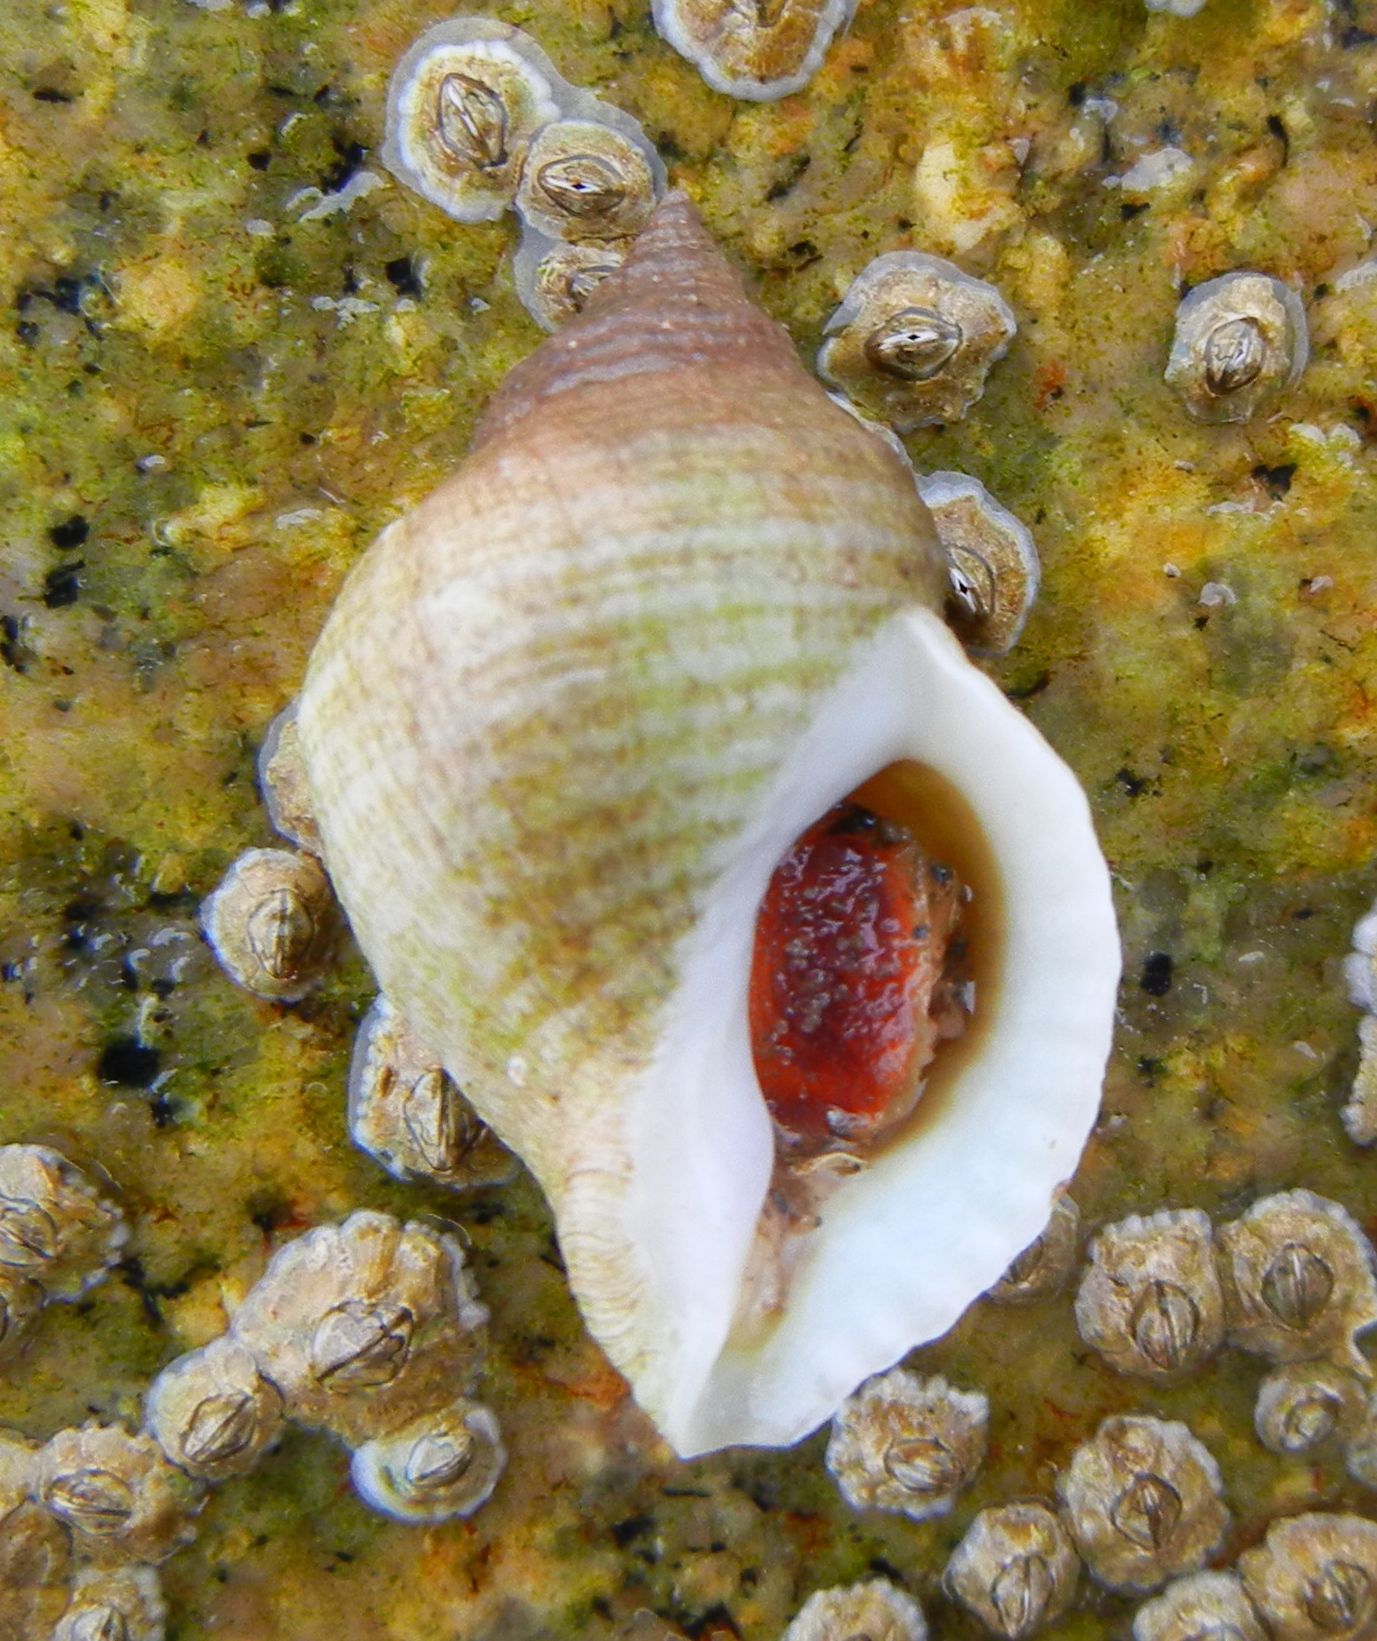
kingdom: Animalia
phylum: Mollusca
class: Gastropoda
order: Neogastropoda
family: Muricidae
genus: Nucella
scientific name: Nucella lapillus
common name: Dog whelk
